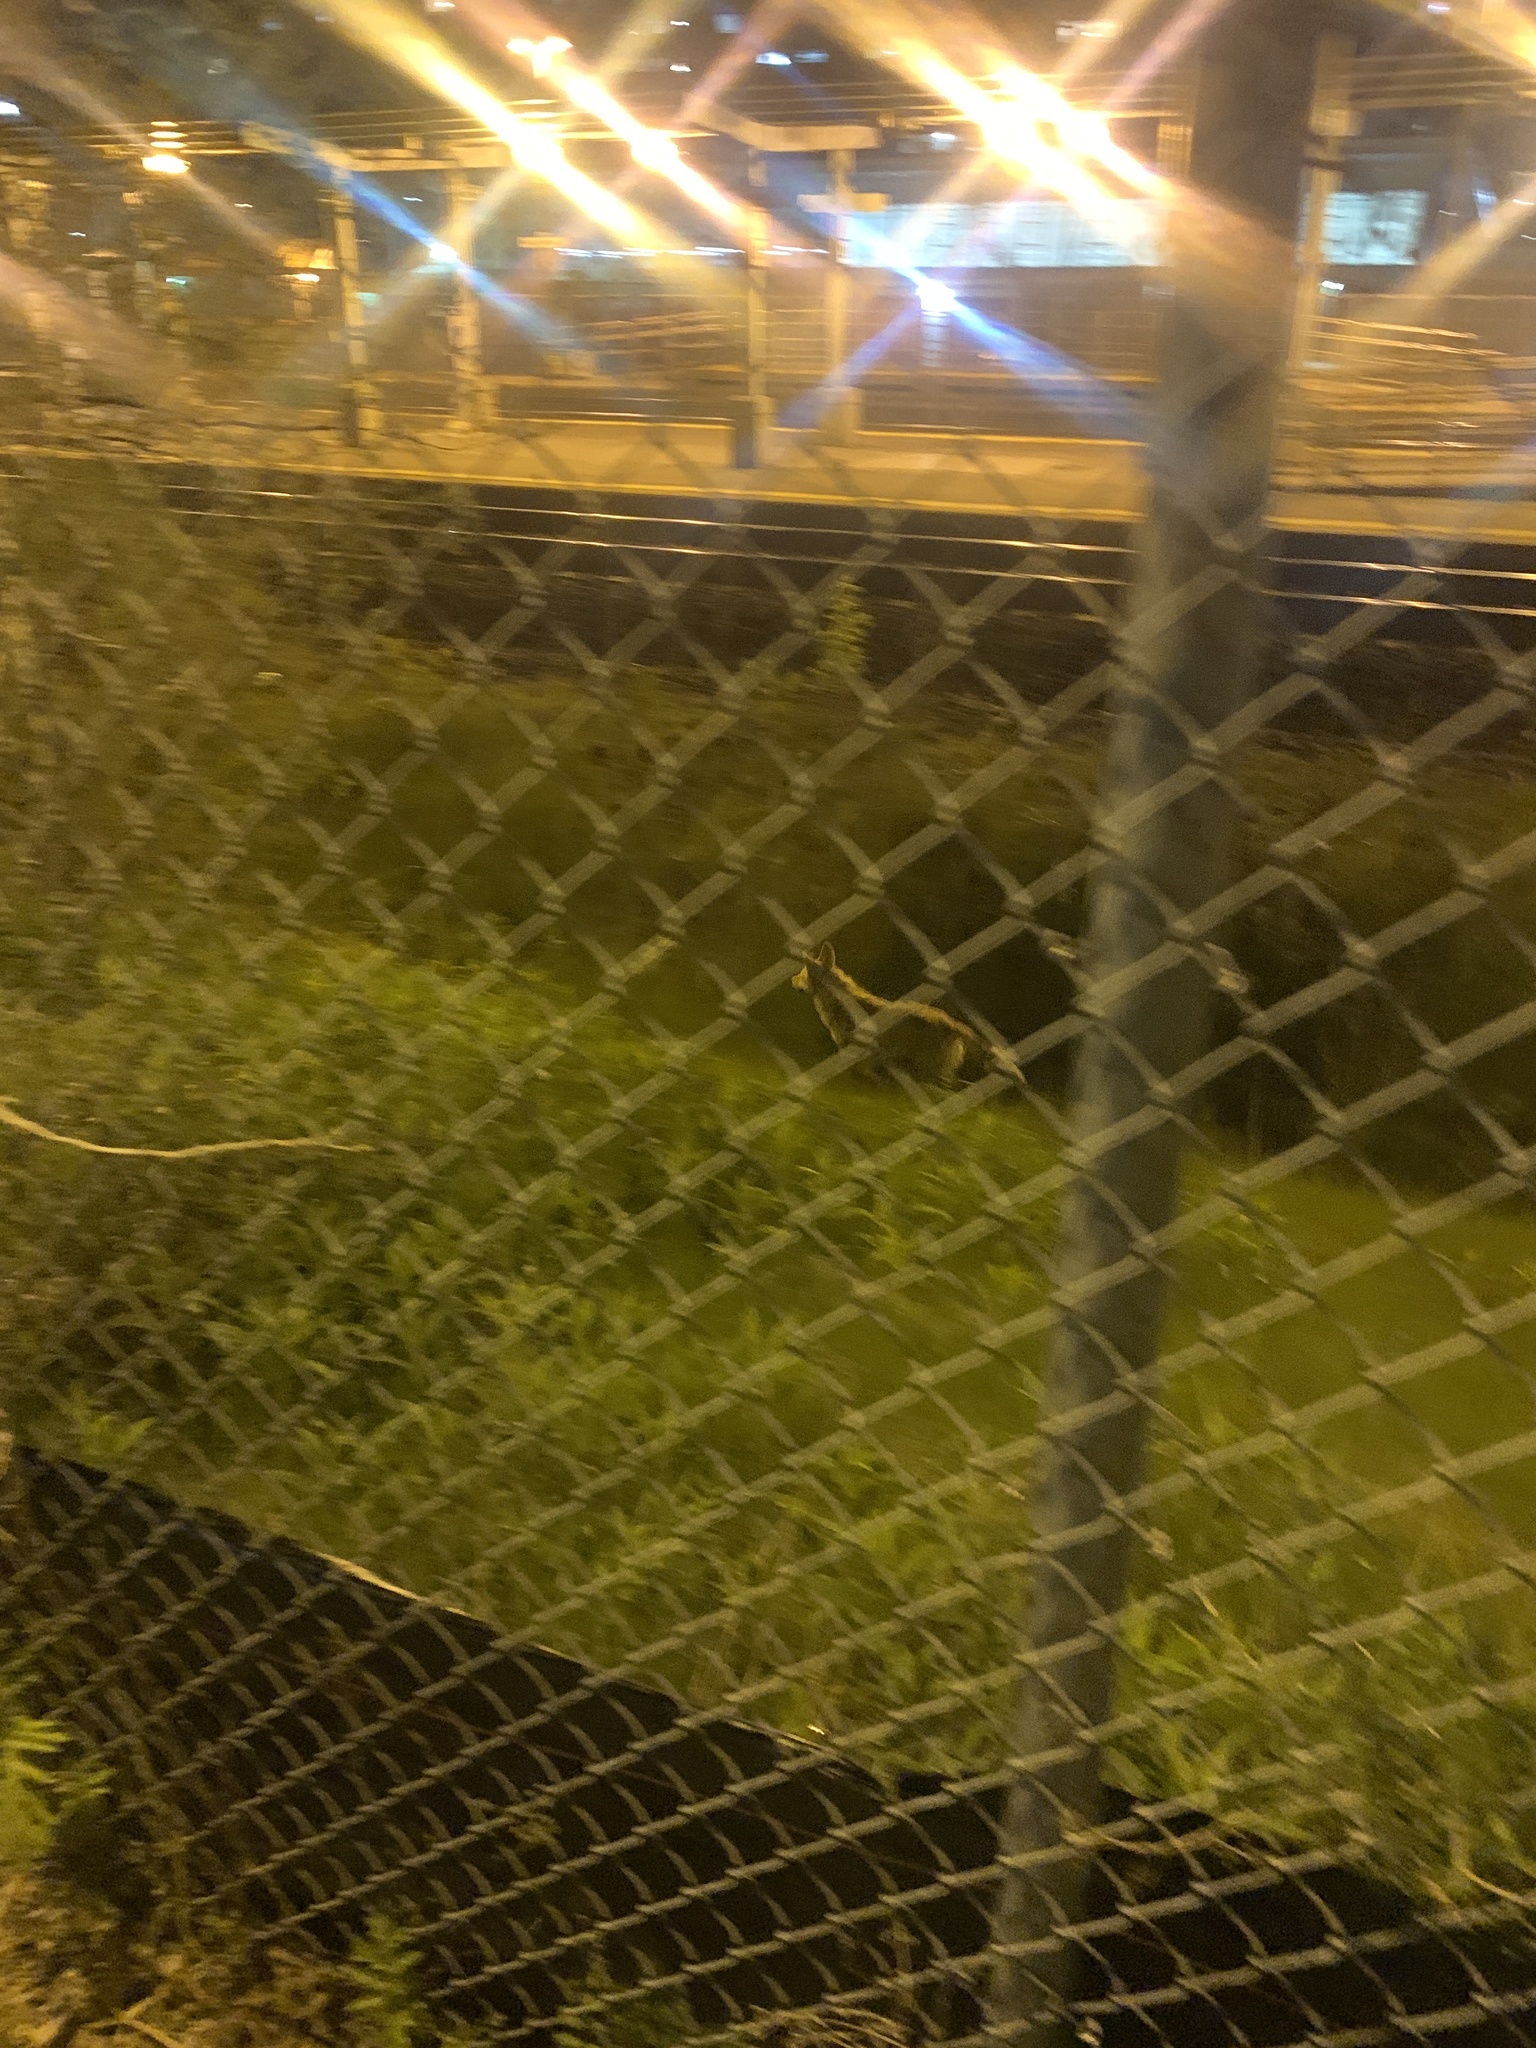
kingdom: Animalia
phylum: Chordata
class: Mammalia
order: Carnivora
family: Canidae
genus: Canis
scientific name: Canis latrans
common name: Coyote
